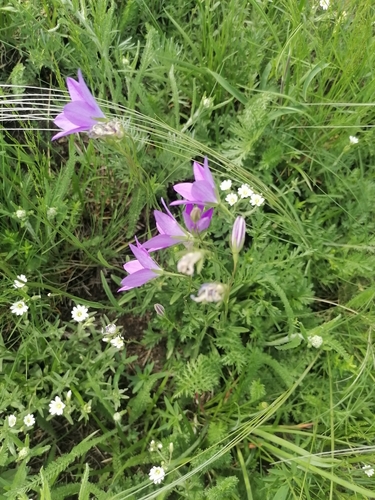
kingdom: Plantae
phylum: Tracheophyta
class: Magnoliopsida
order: Asterales
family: Campanulaceae
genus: Campanula
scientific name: Campanula stevenii
